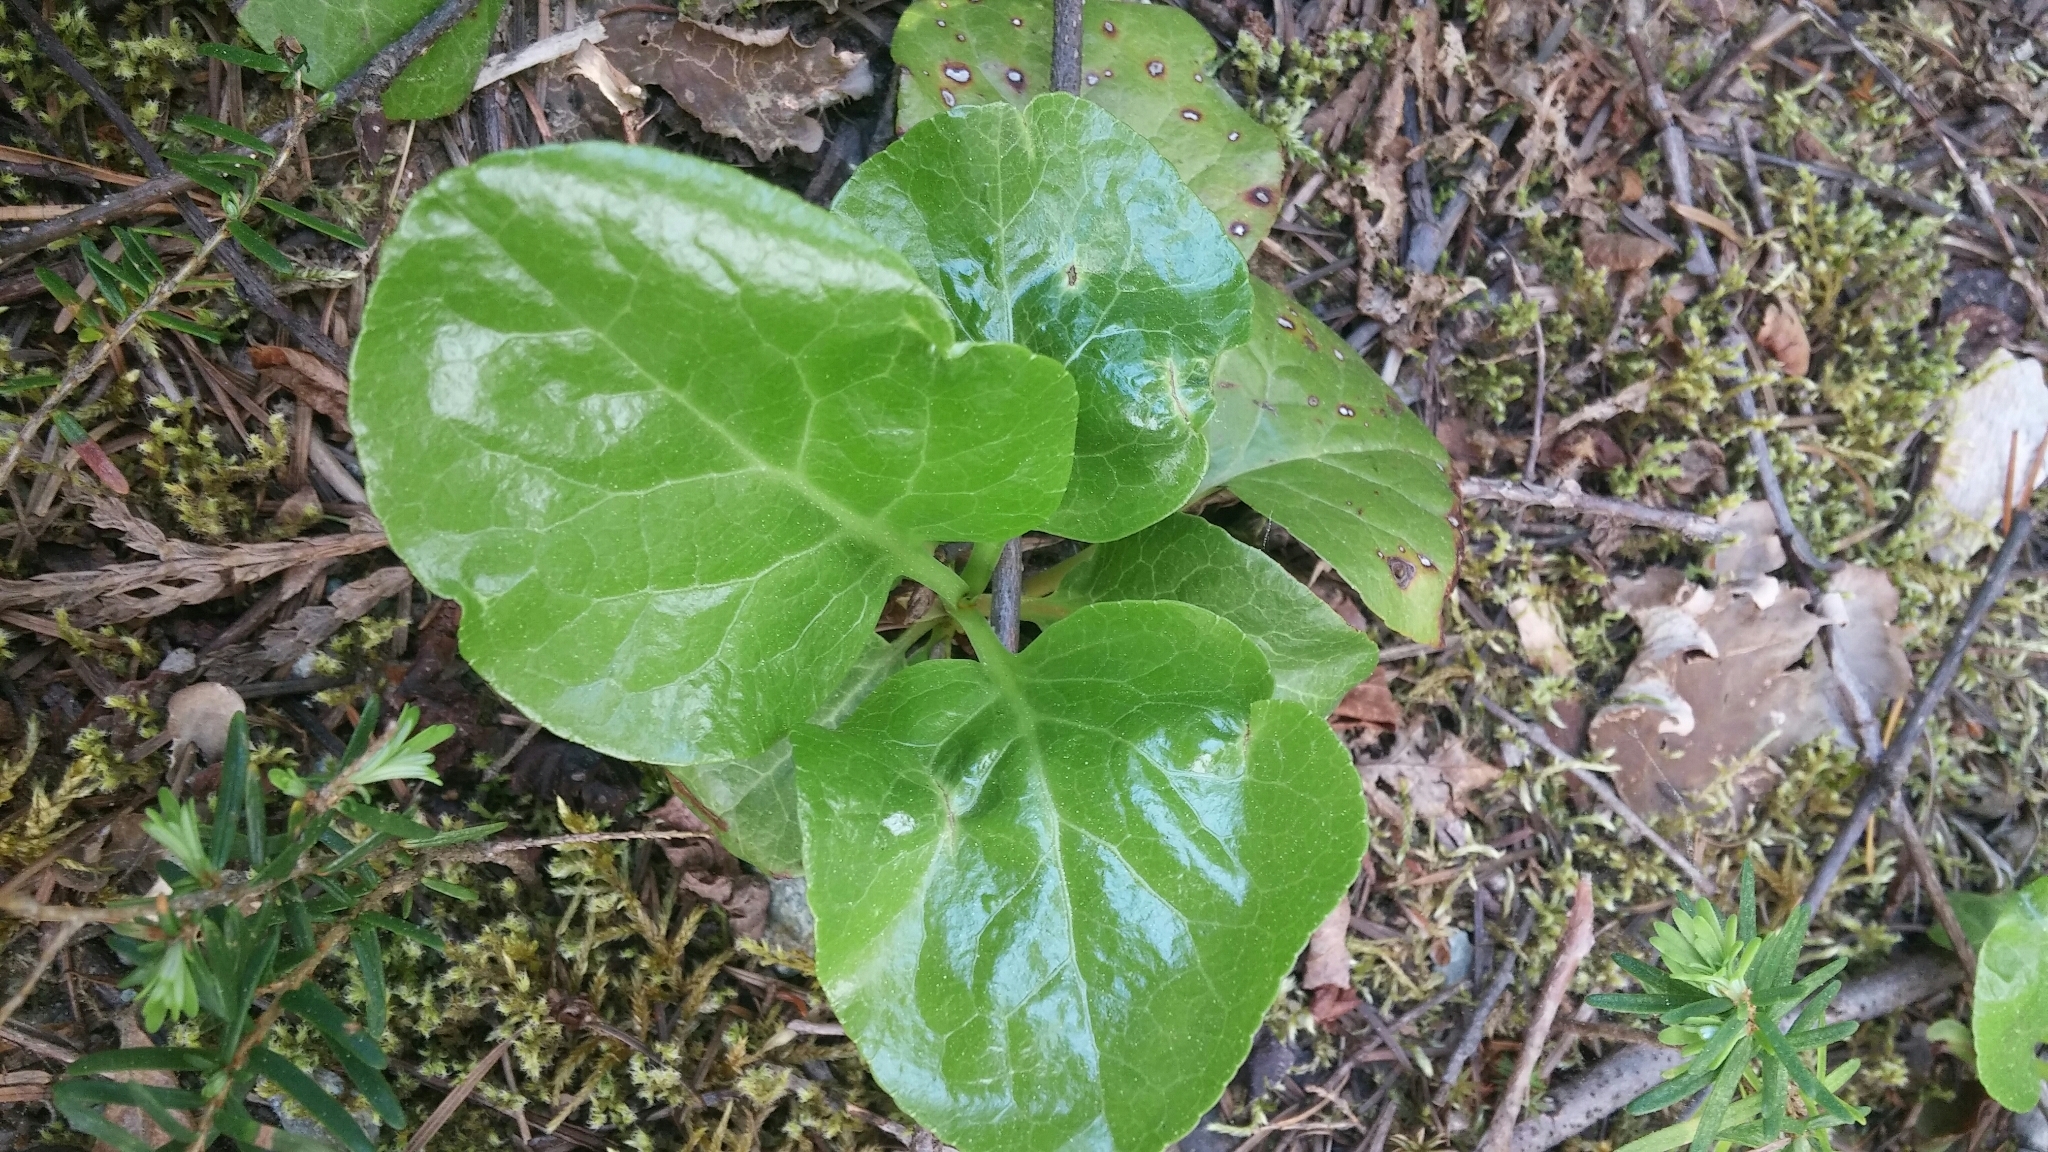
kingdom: Plantae
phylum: Tracheophyta
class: Magnoliopsida
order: Ericales
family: Ericaceae
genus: Pyrola
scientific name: Pyrola asarifolia
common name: Bog wintergreen
